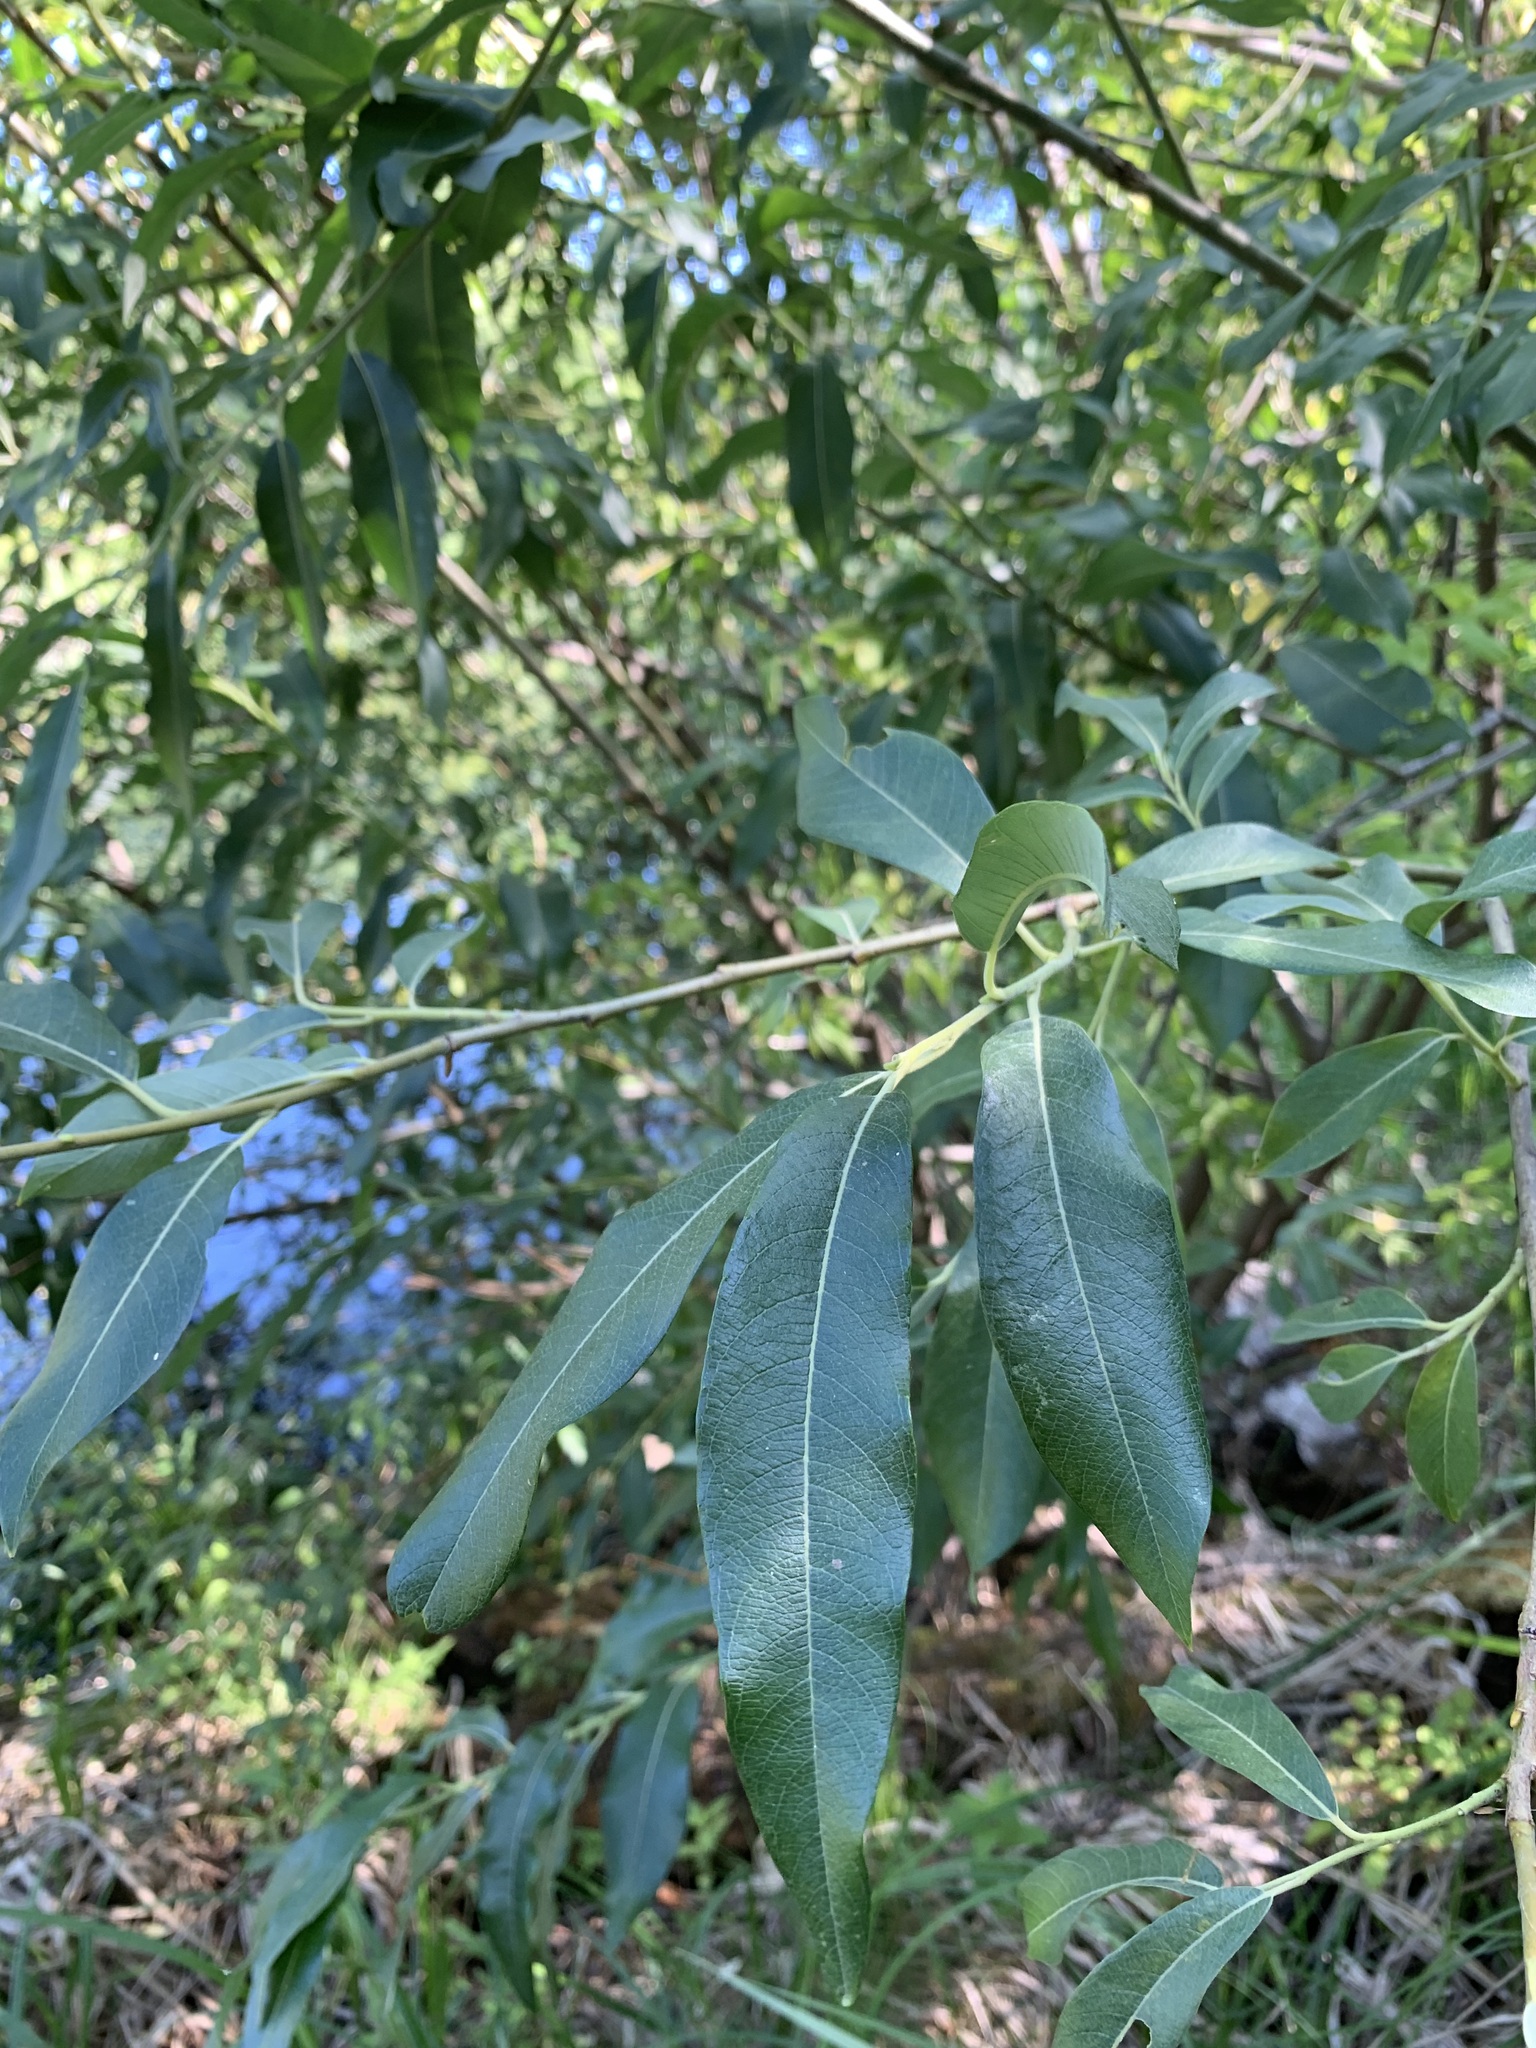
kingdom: Plantae
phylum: Tracheophyta
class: Magnoliopsida
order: Malpighiales
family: Salicaceae
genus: Salix
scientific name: Salix gmelinii
